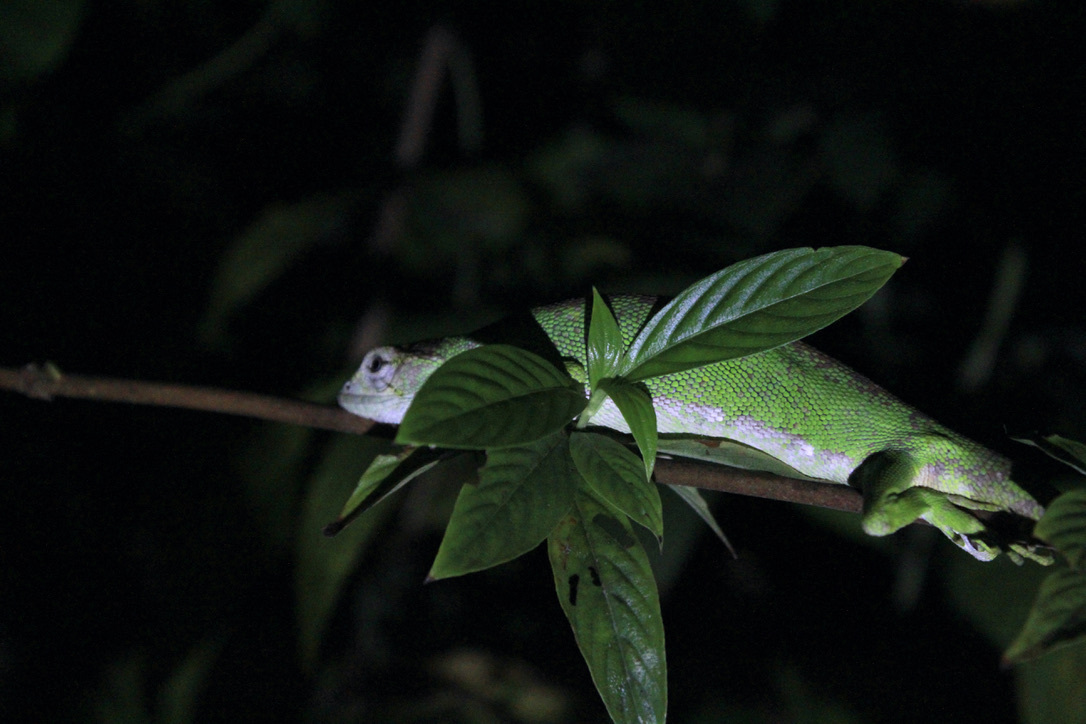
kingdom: Animalia
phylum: Chordata
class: Squamata
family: Polychrotidae
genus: Polychrus
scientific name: Polychrus auduboni
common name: Common monkey lizard
